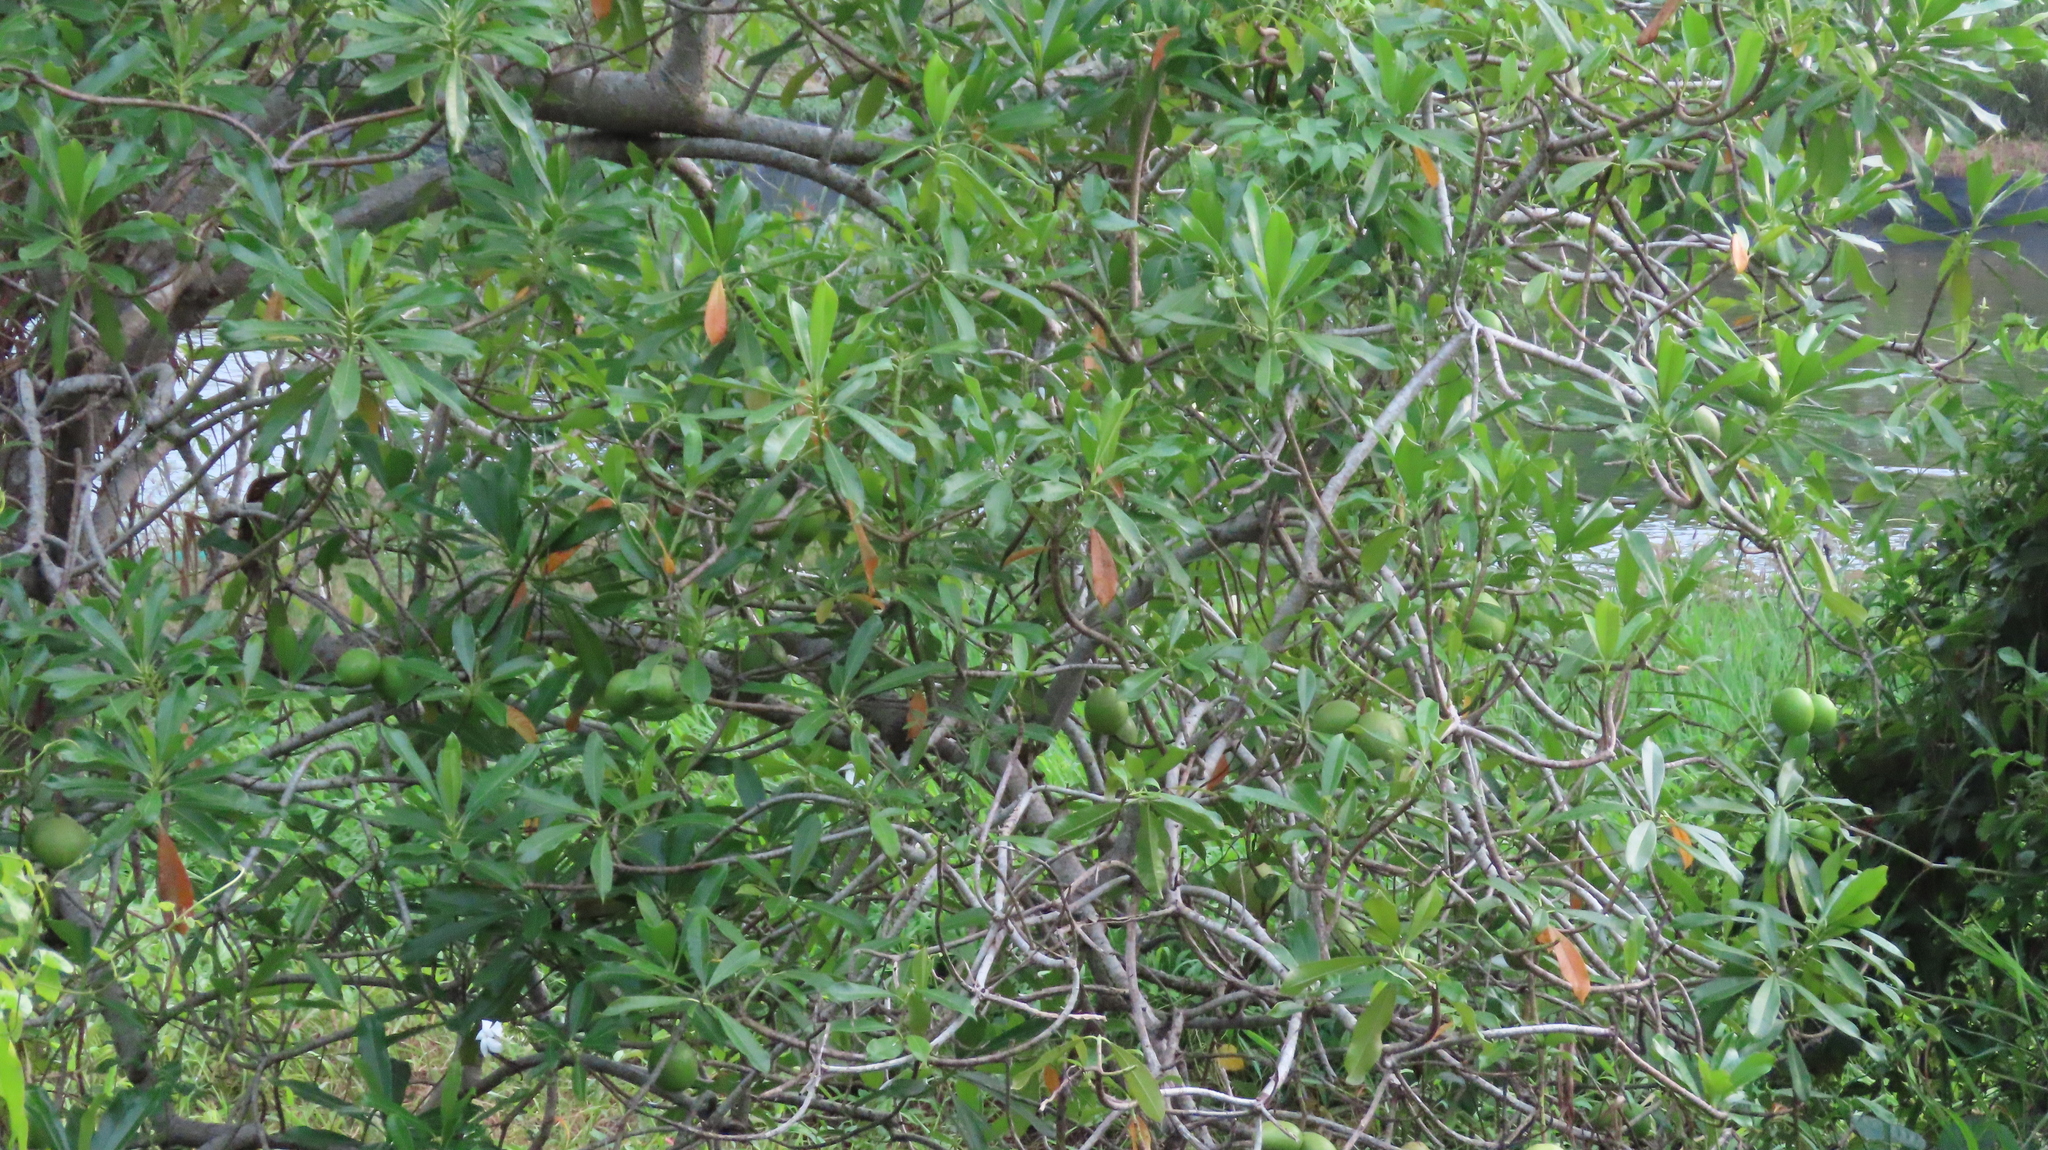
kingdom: Plantae
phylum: Tracheophyta
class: Magnoliopsida
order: Gentianales
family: Apocynaceae
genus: Cerbera
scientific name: Cerbera odollam
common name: Pong-pong
